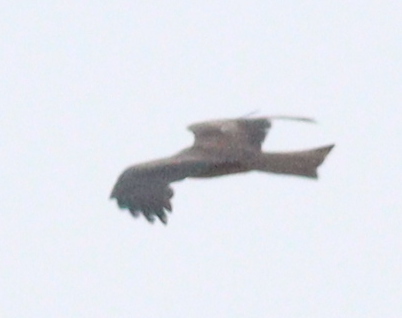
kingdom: Animalia
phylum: Chordata
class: Aves
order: Accipitriformes
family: Accipitridae
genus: Milvus
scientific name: Milvus migrans
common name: Black kite
